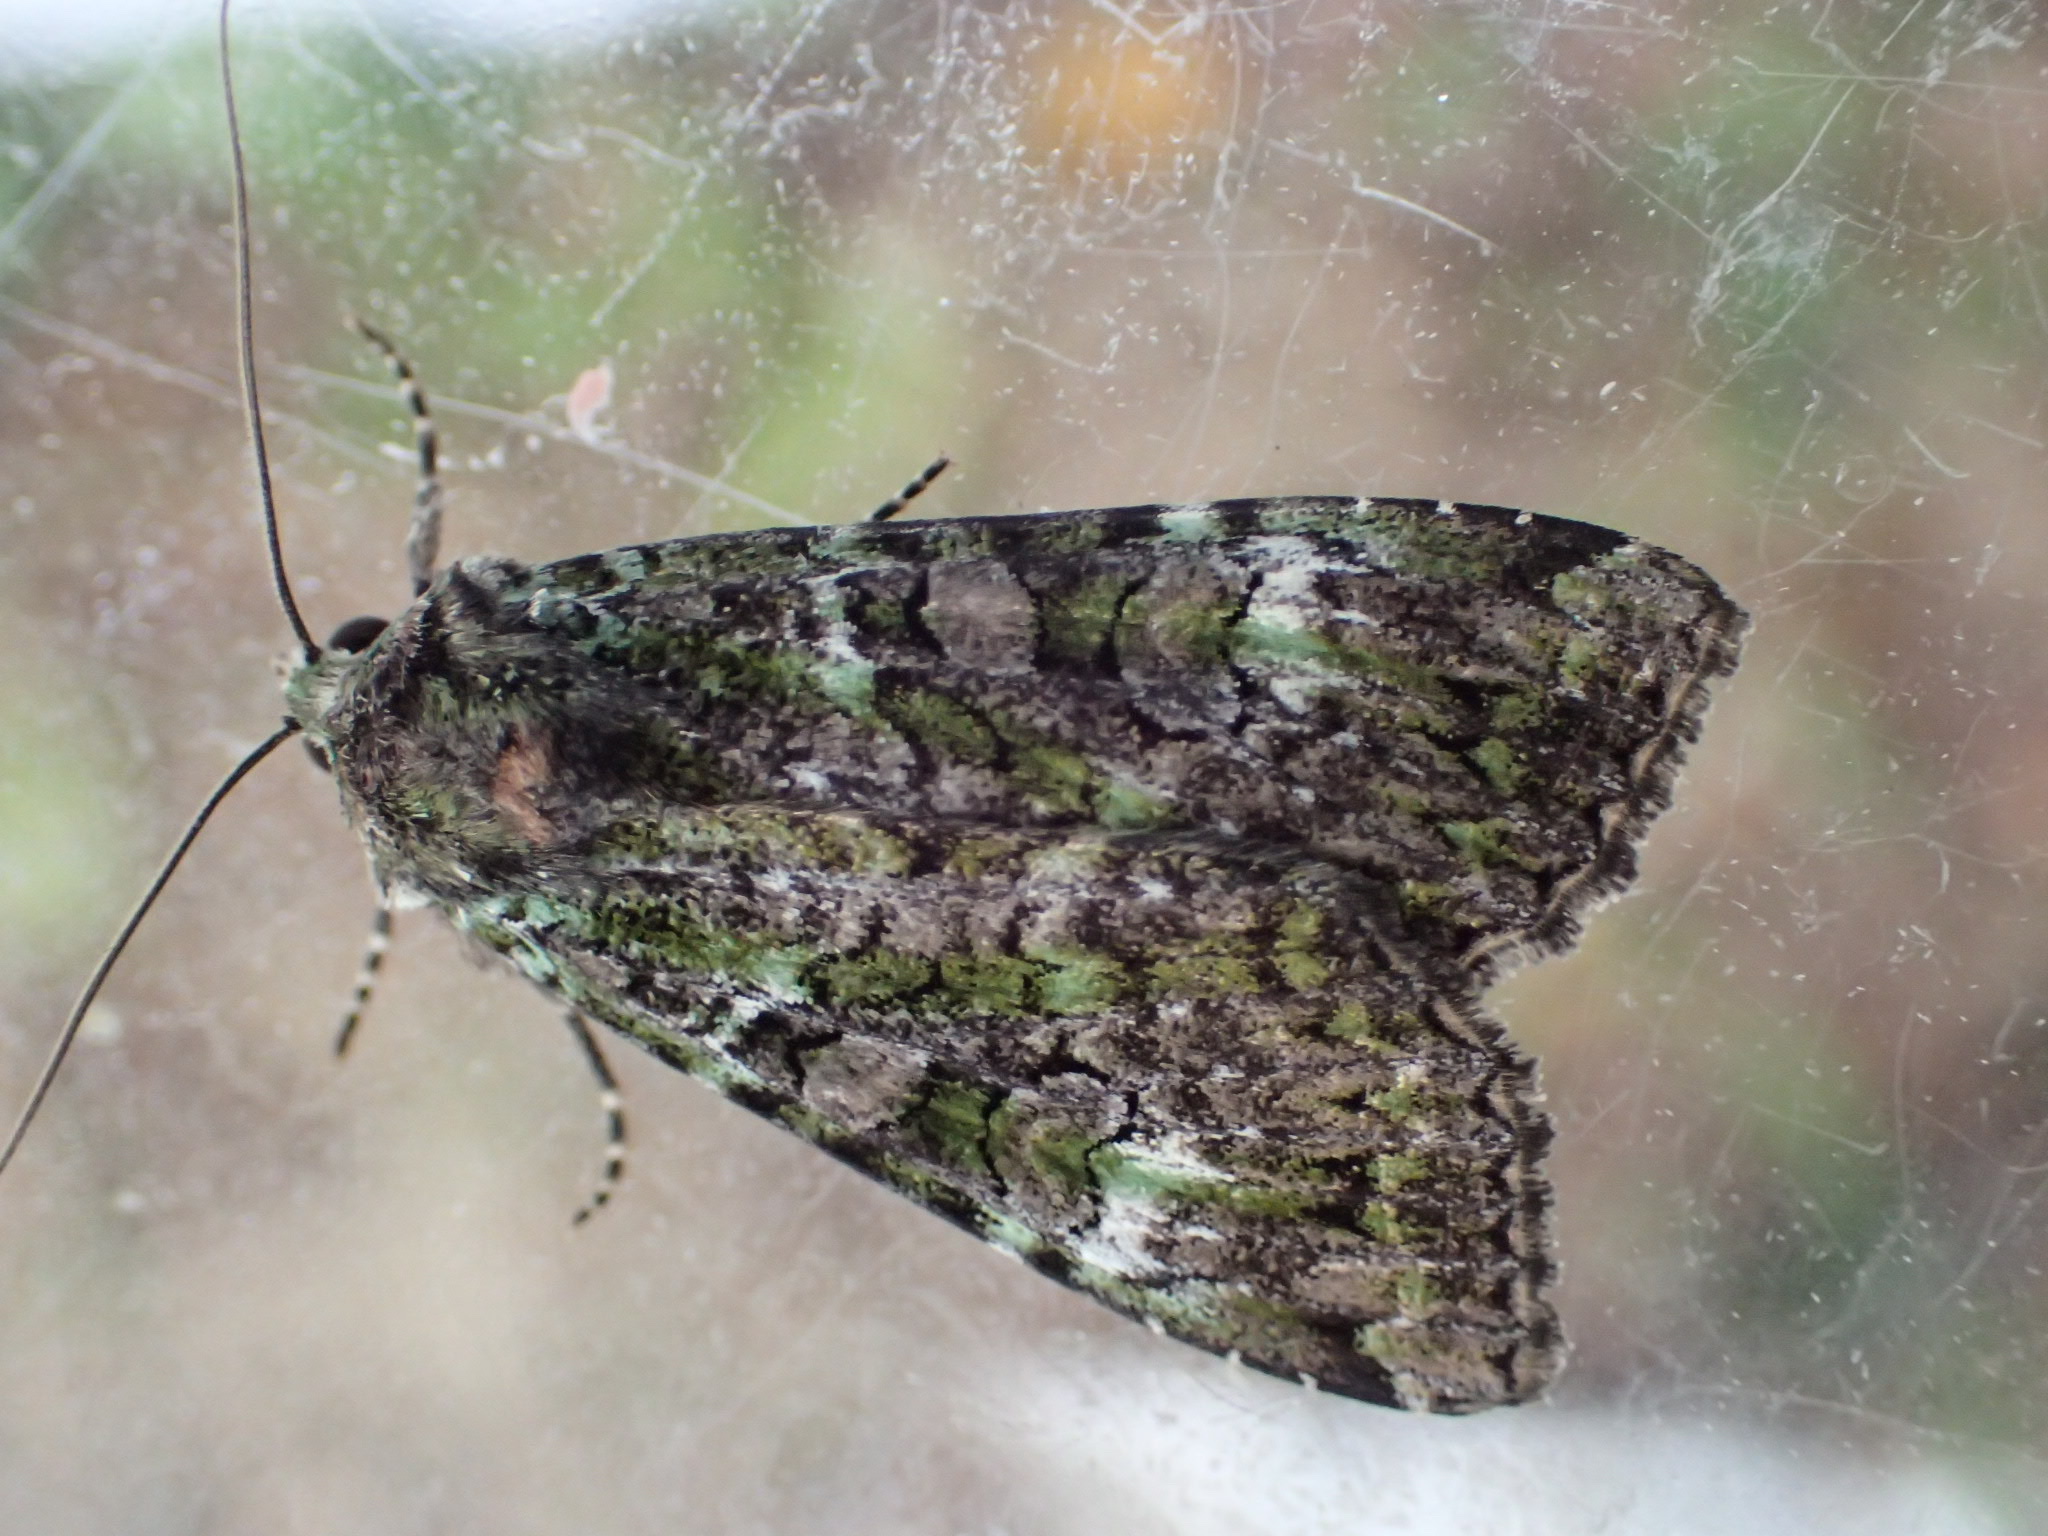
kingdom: Animalia
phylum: Arthropoda
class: Insecta
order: Lepidoptera
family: Noctuidae
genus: Anaplectoides
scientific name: Anaplectoides prasina
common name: Green arches
